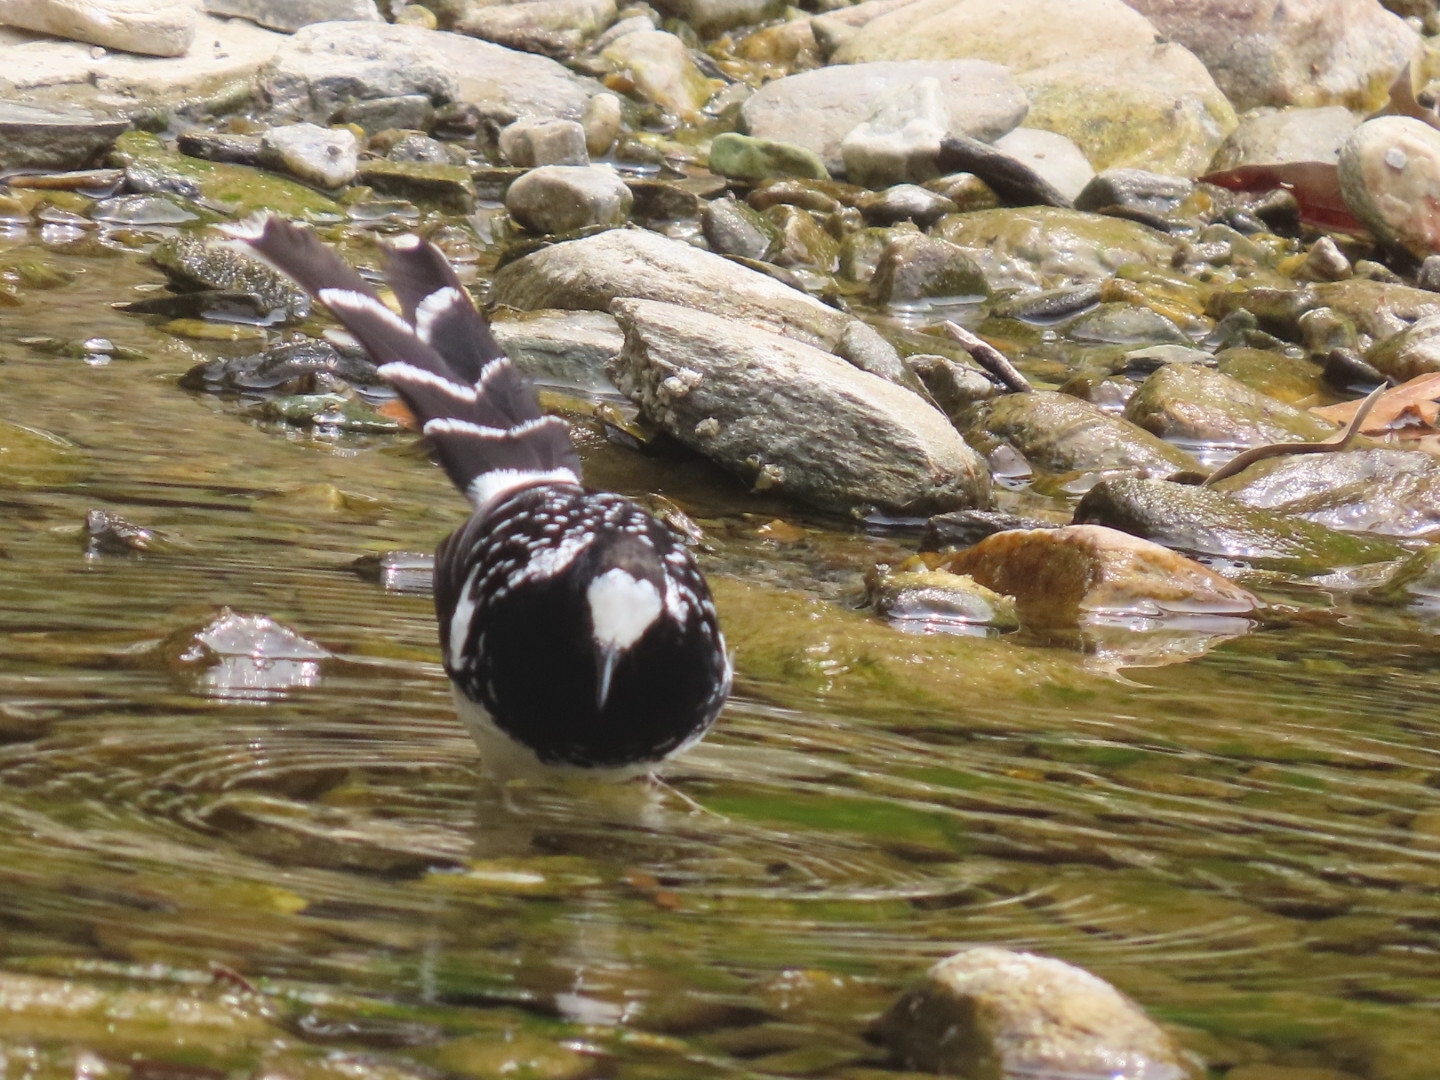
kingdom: Animalia
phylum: Chordata
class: Aves
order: Passeriformes
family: Muscicapidae
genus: Enicurus
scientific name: Enicurus maculatus
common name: Spotted forktail
